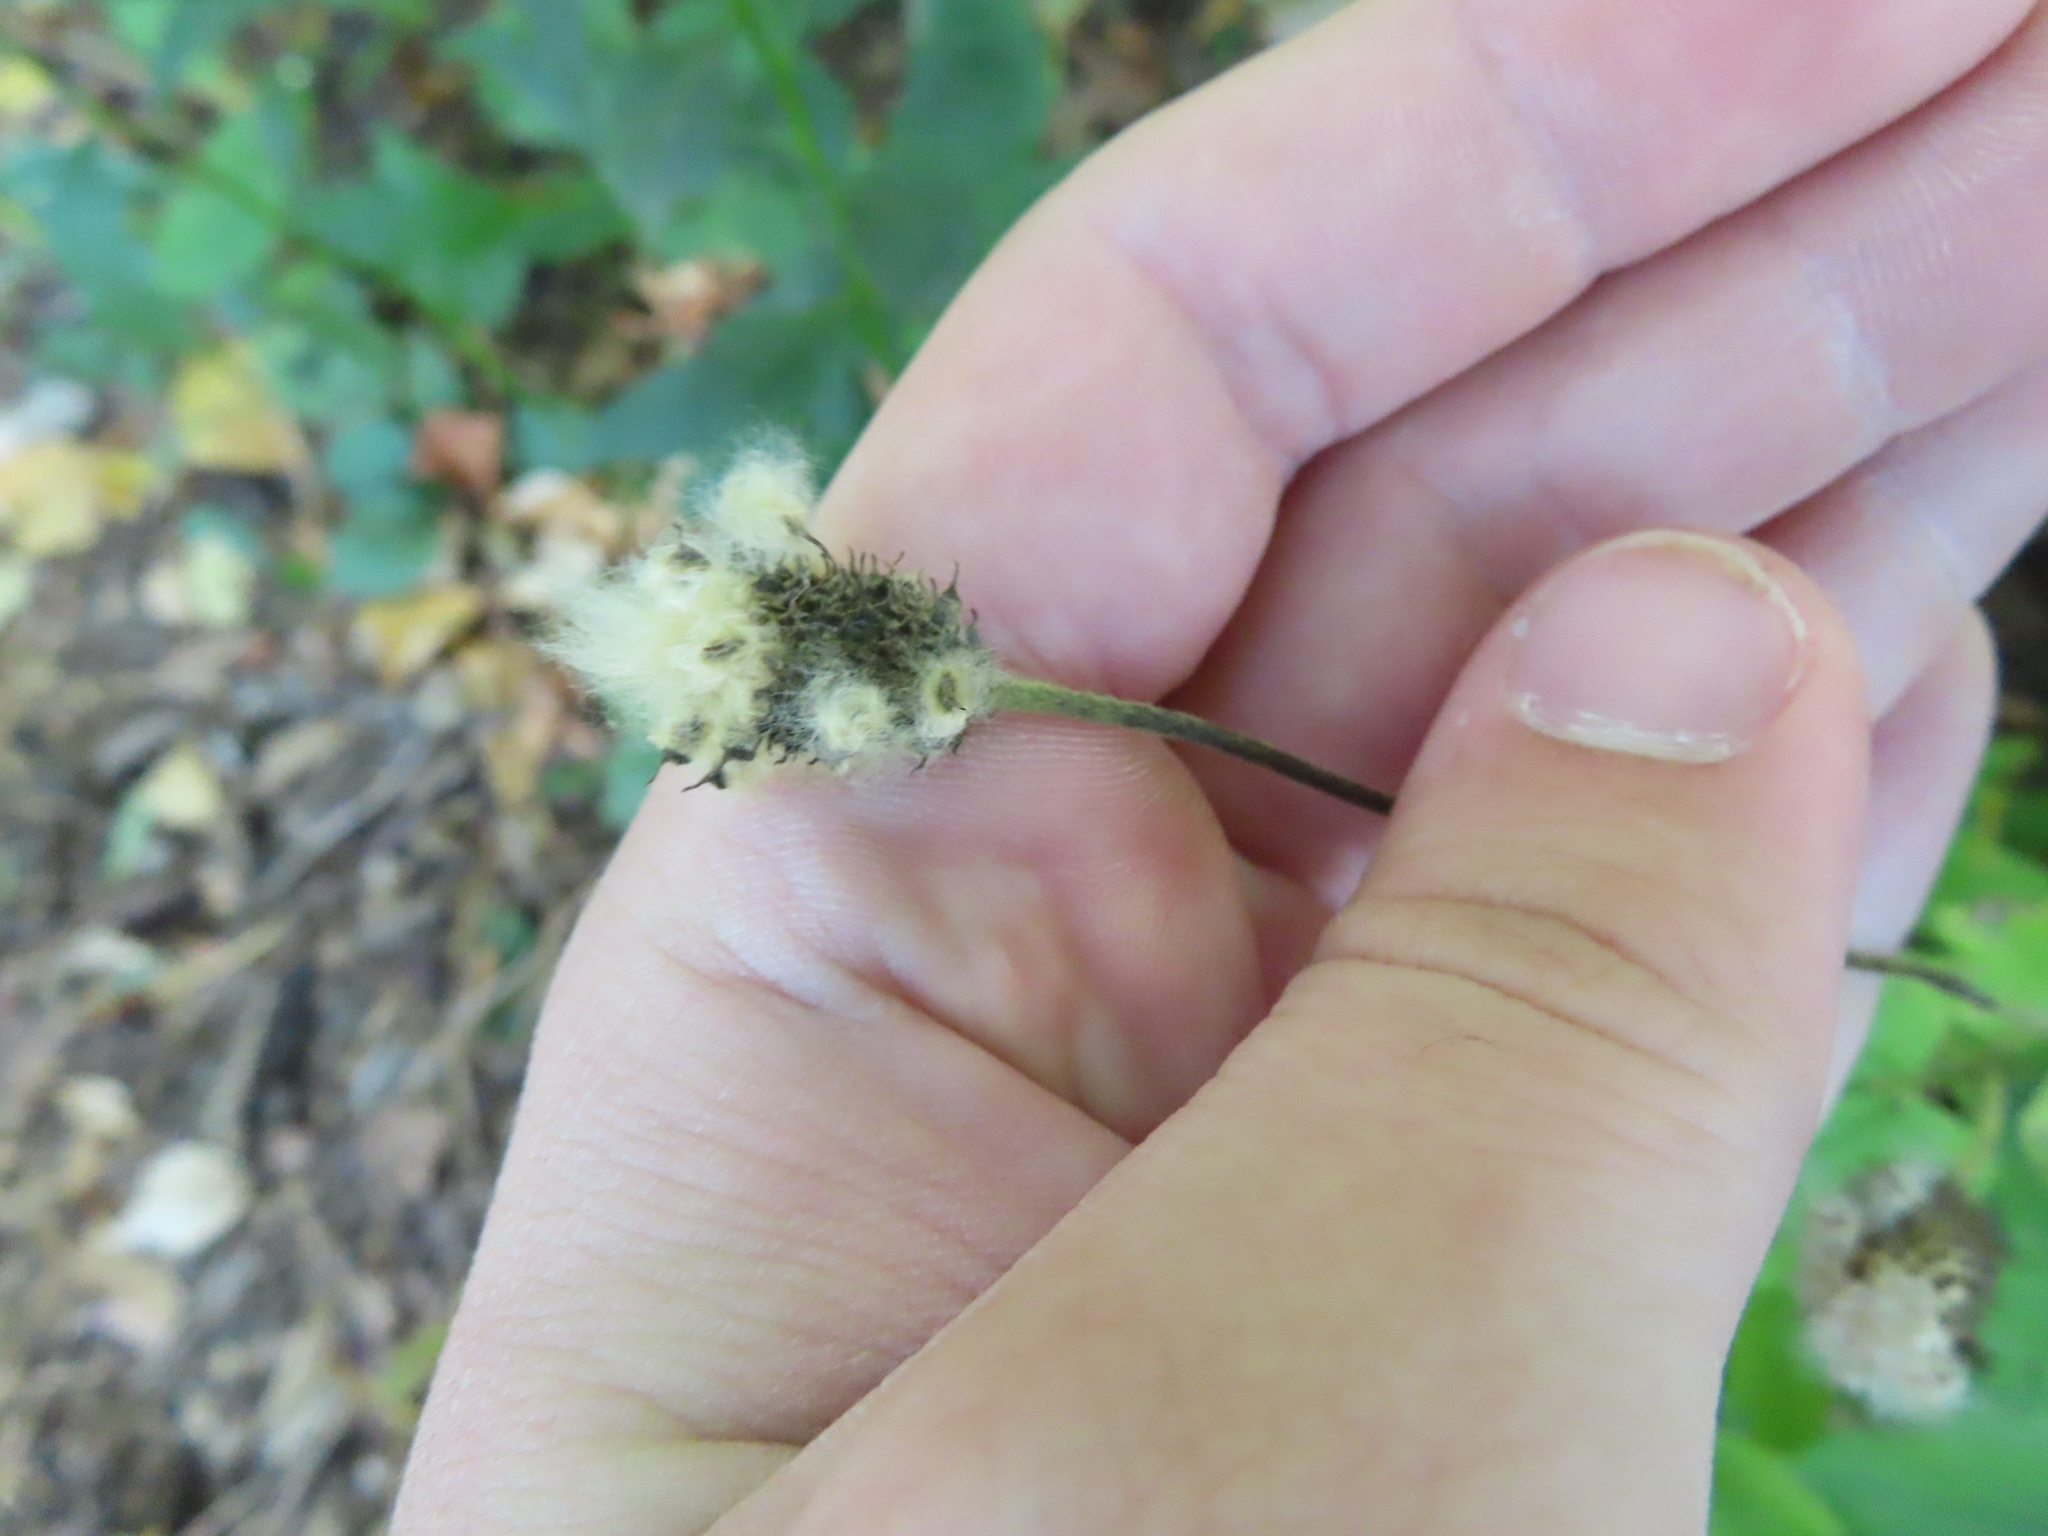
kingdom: Plantae
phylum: Tracheophyta
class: Magnoliopsida
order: Ranunculales
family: Ranunculaceae
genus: Anemone
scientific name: Anemone virginiana
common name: Tall anemone
